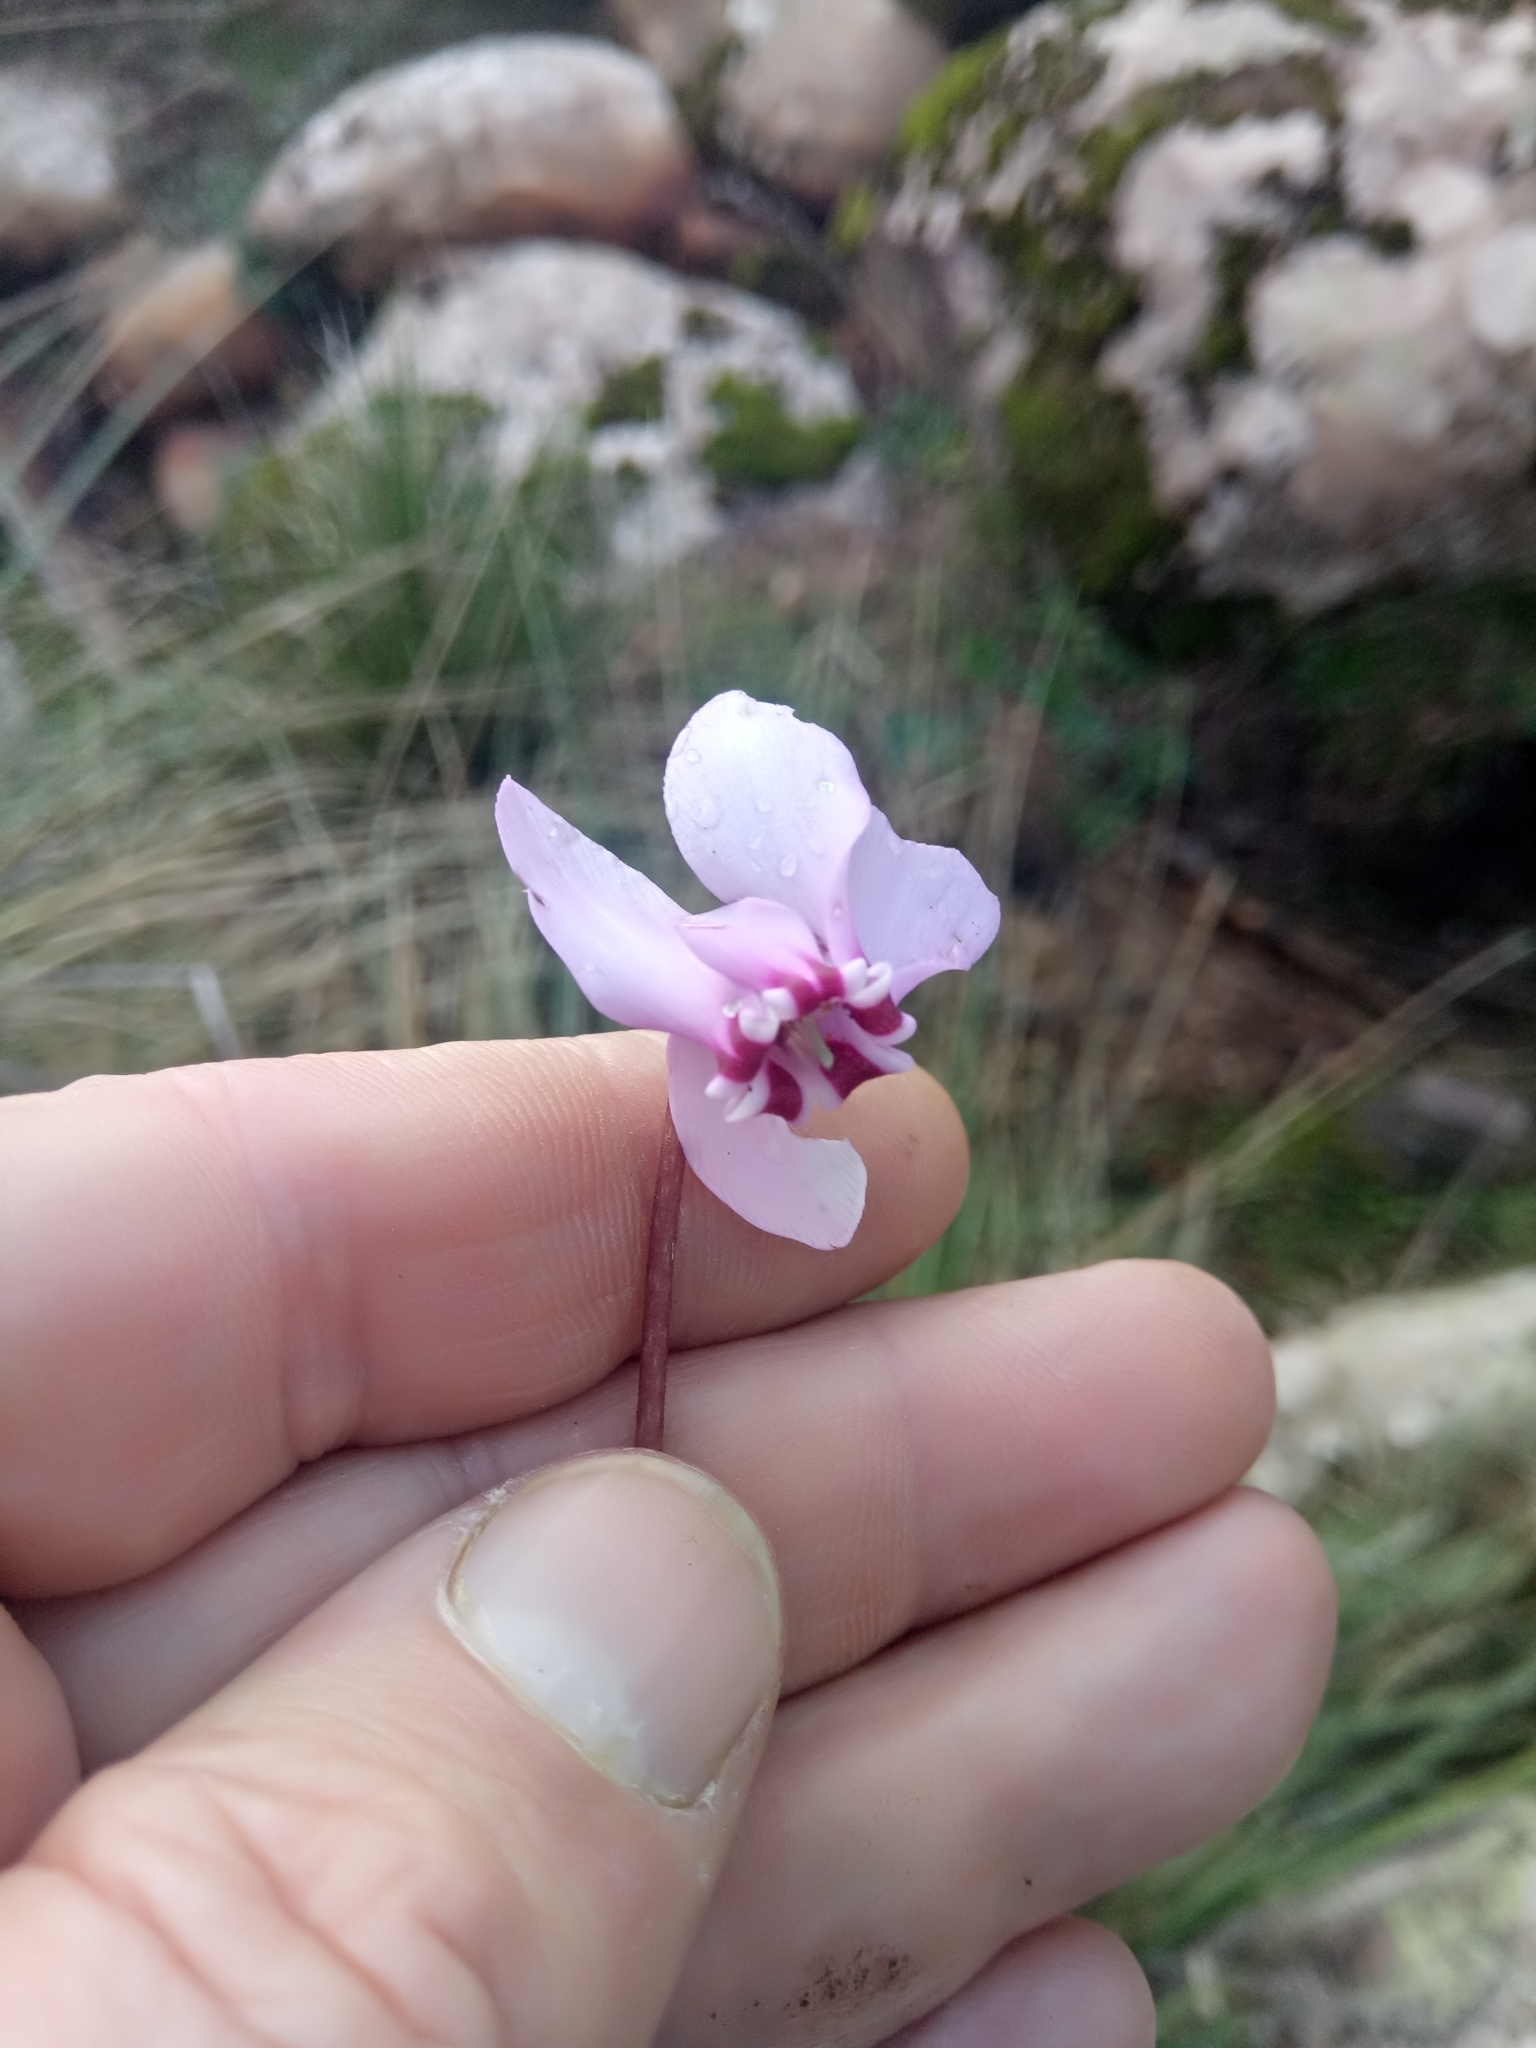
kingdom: Plantae
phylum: Tracheophyta
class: Magnoliopsida
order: Ericales
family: Primulaceae
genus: Cyclamen
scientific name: Cyclamen africanum
